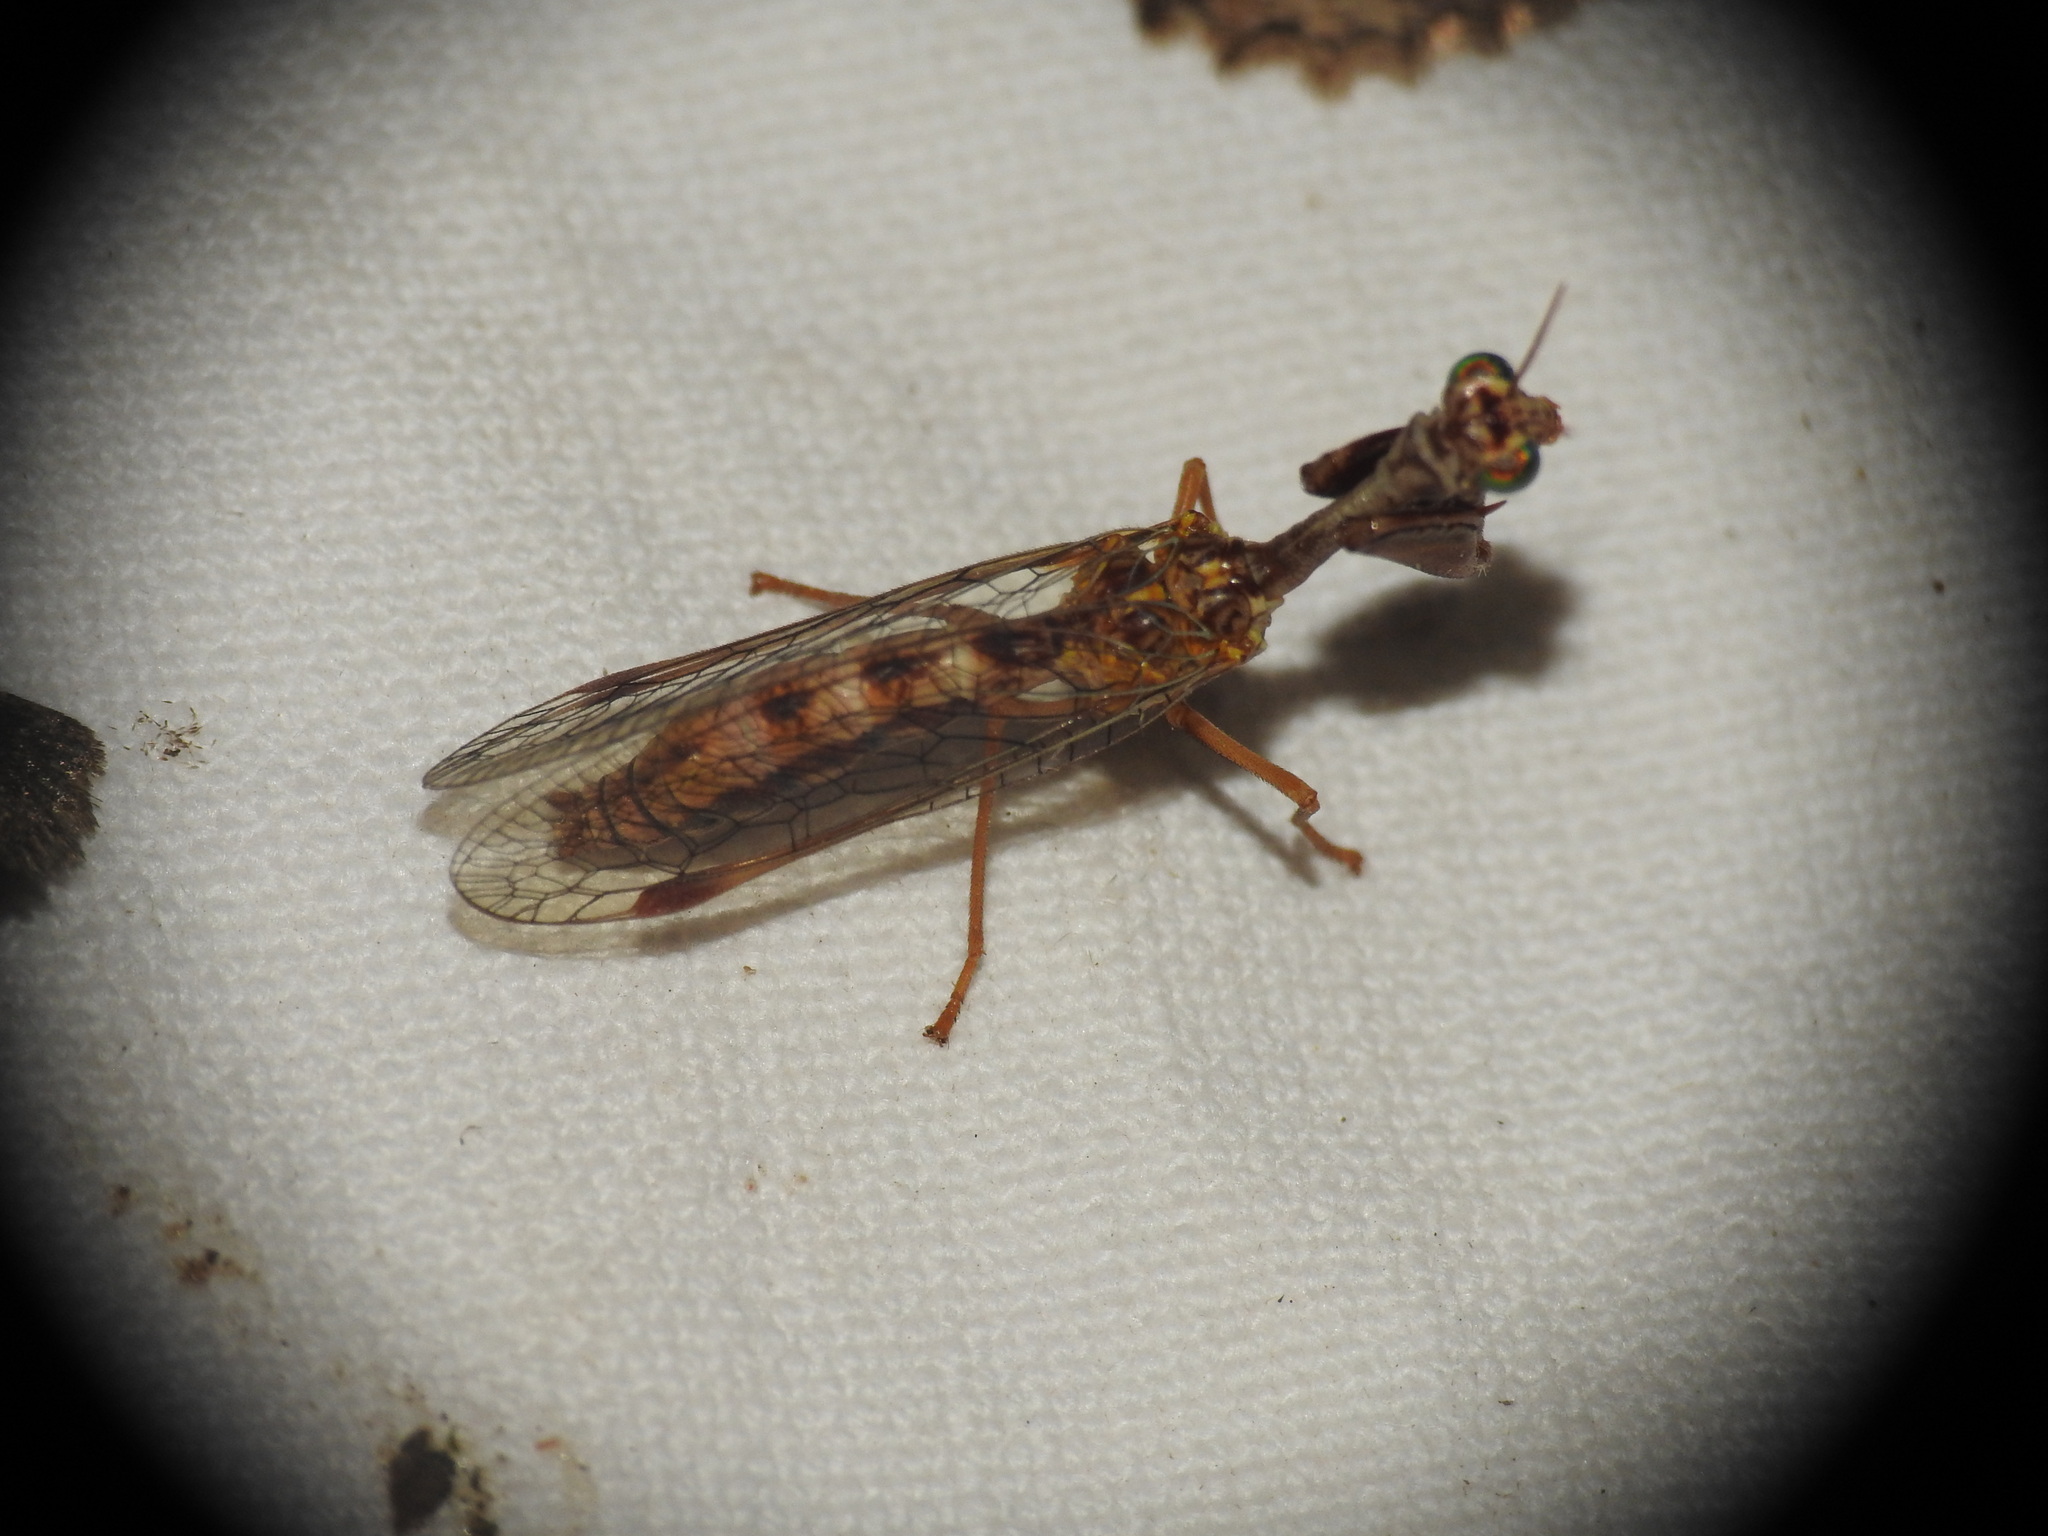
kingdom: Animalia
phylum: Arthropoda
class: Insecta
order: Neuroptera
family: Mantispidae
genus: Mantispa
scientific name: Mantispa styriaca
